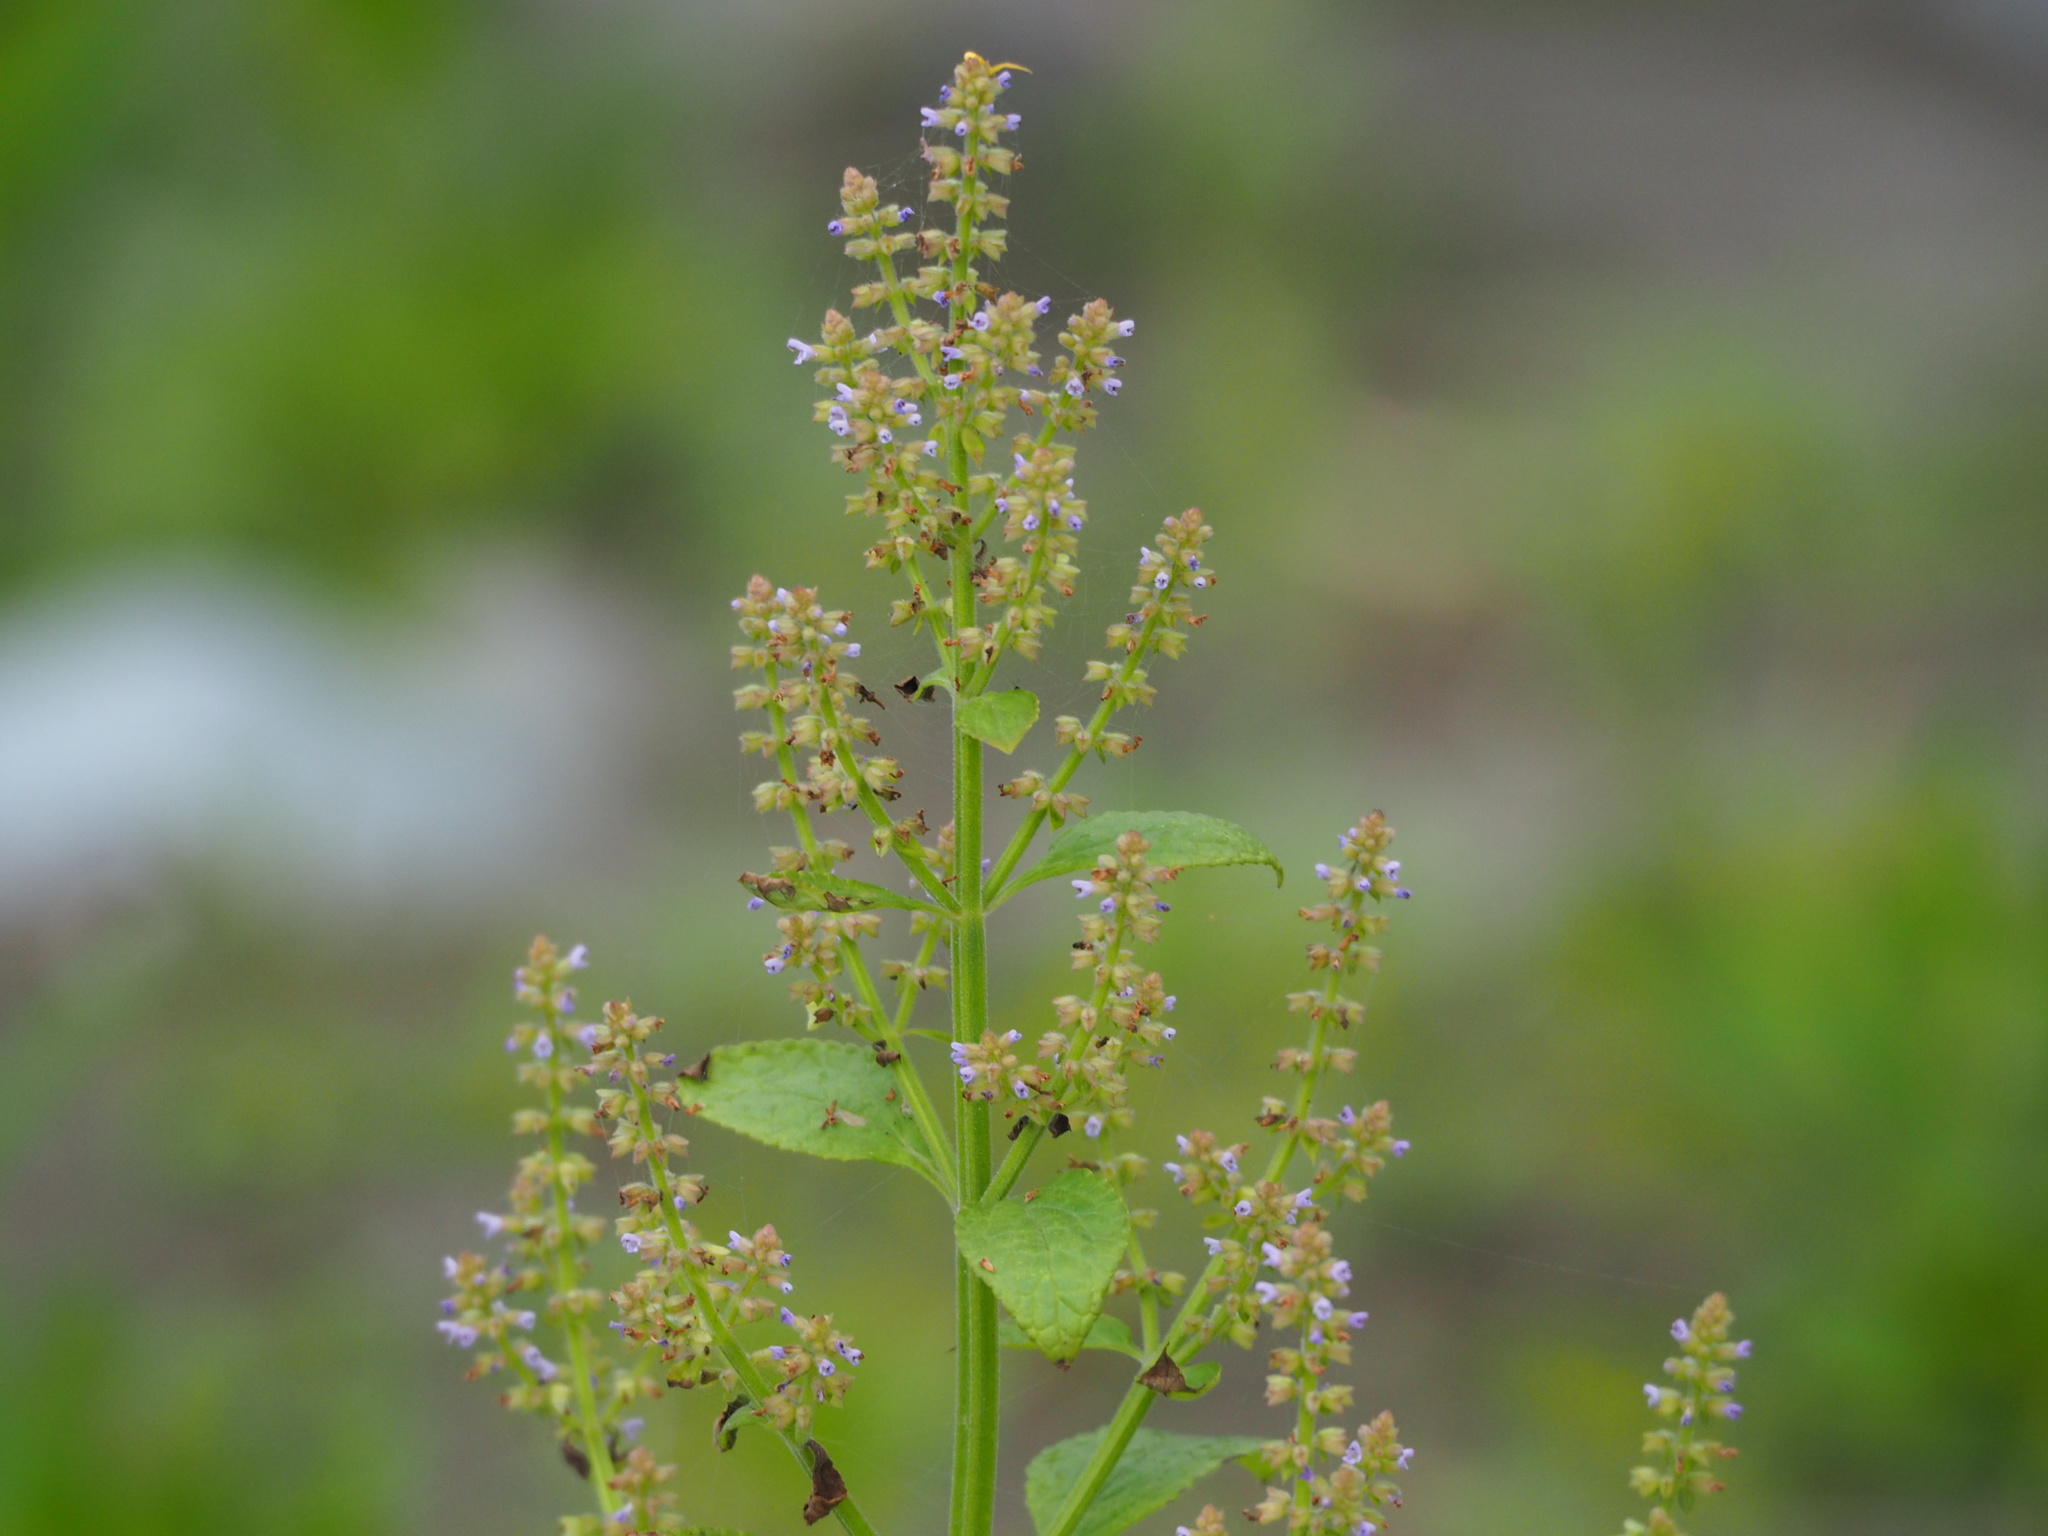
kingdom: Plantae
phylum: Tracheophyta
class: Magnoliopsida
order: Lamiales
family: Lamiaceae
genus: Salvia
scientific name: Salvia plebeia
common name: Australian sage
